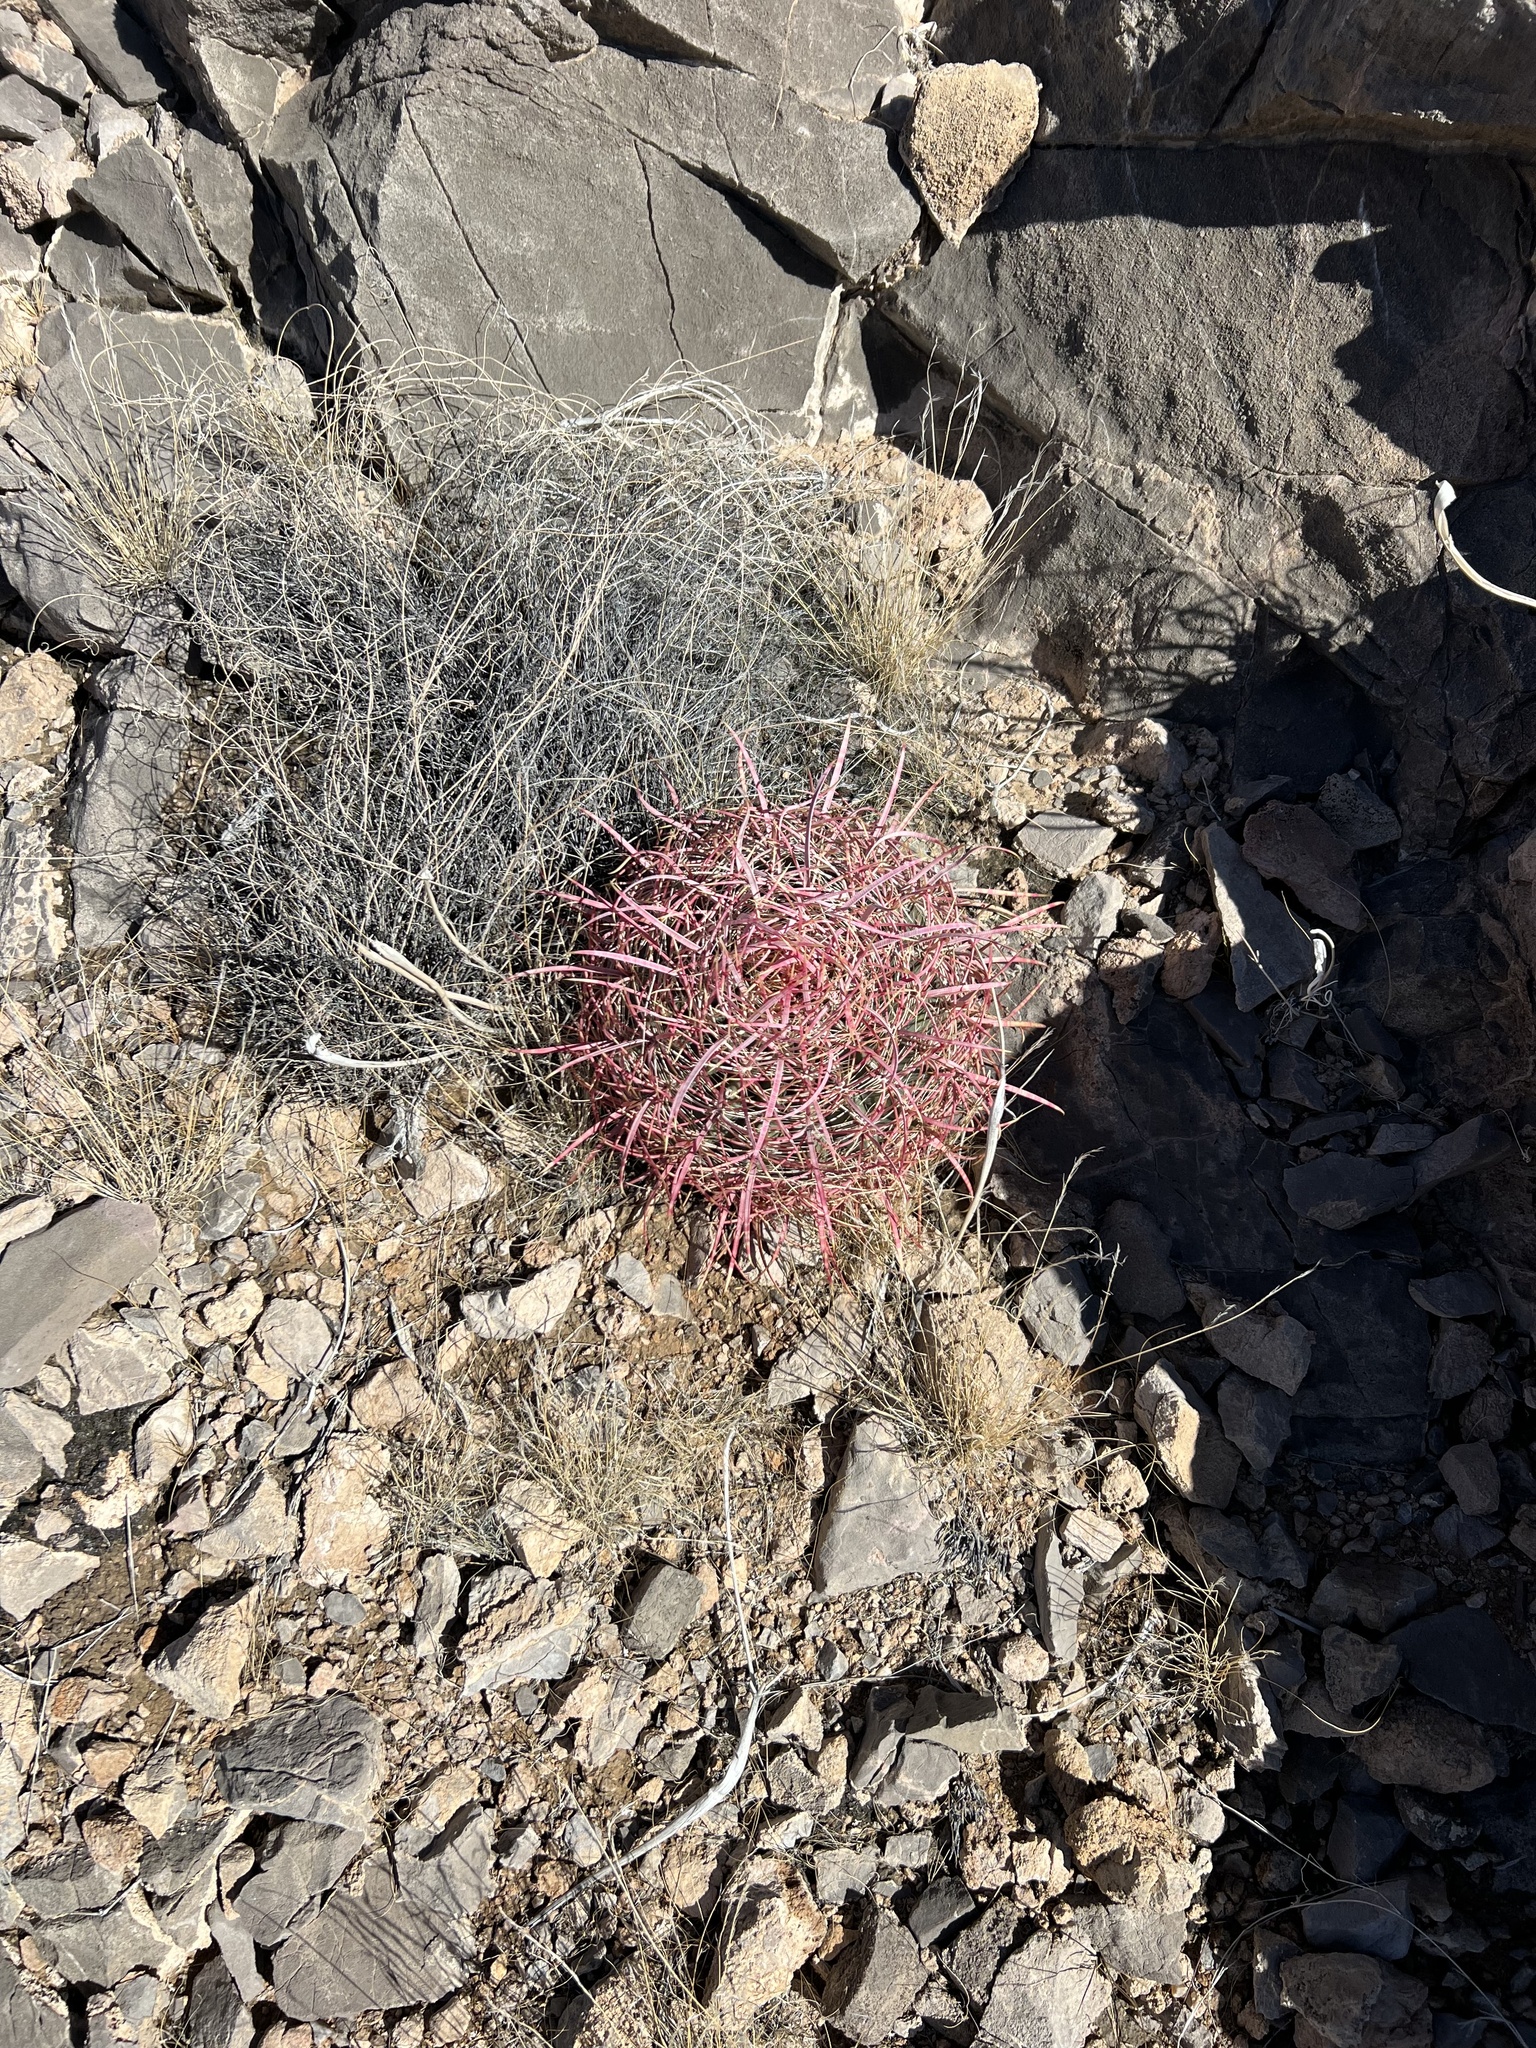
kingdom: Plantae
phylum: Tracheophyta
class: Magnoliopsida
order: Caryophyllales
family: Cactaceae
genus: Ferocactus
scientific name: Ferocactus cylindraceus
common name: California barrel cactus
